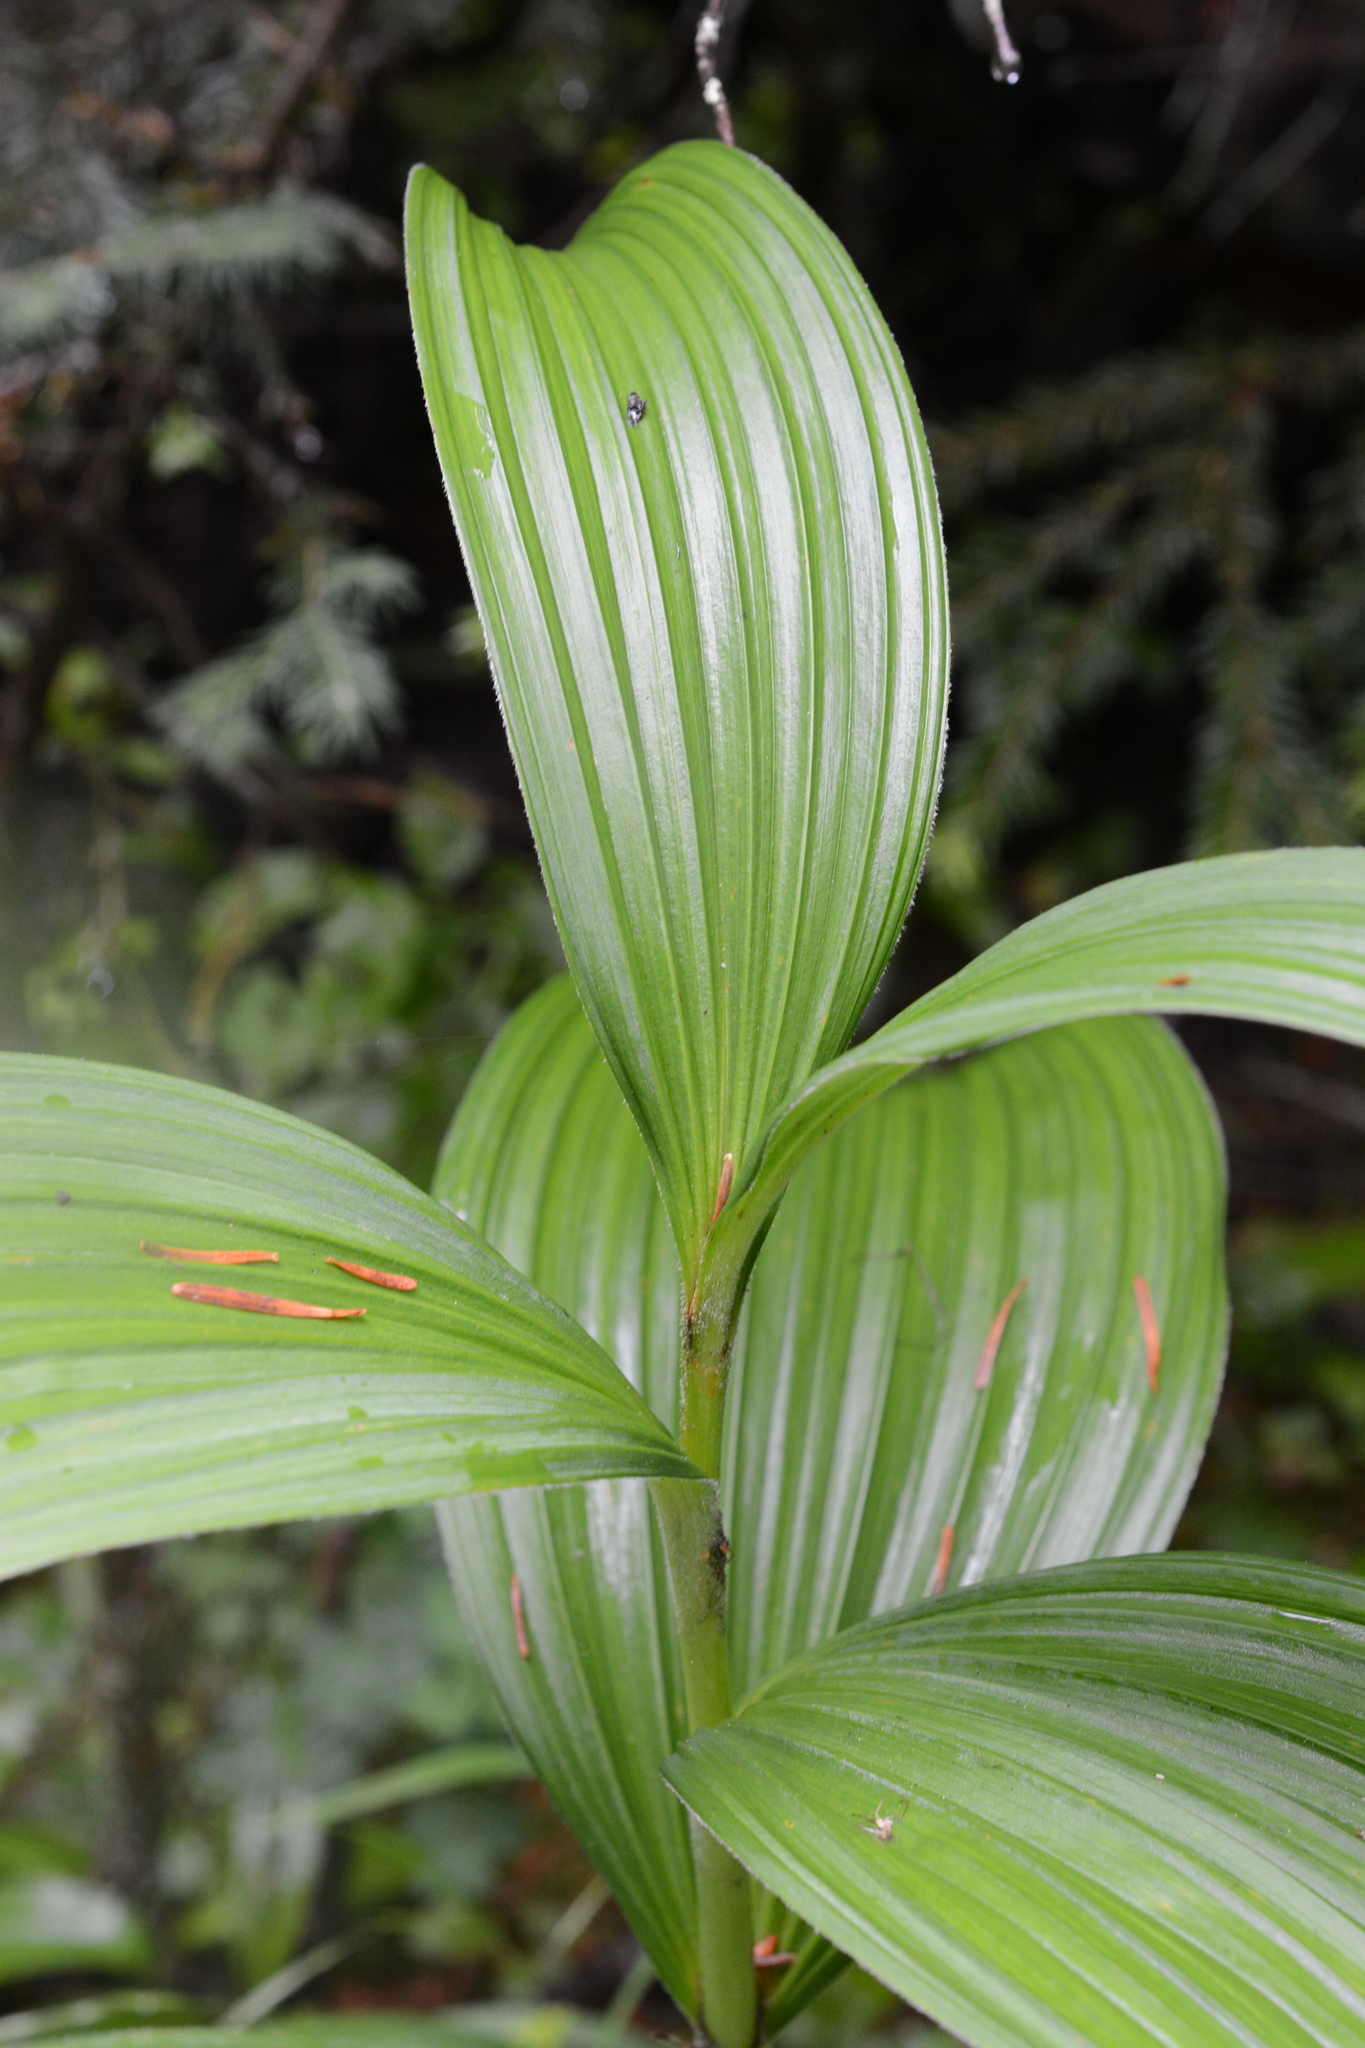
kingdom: Plantae
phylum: Tracheophyta
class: Liliopsida
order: Liliales
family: Melanthiaceae
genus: Veratrum
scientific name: Veratrum viride
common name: American false hellebore
